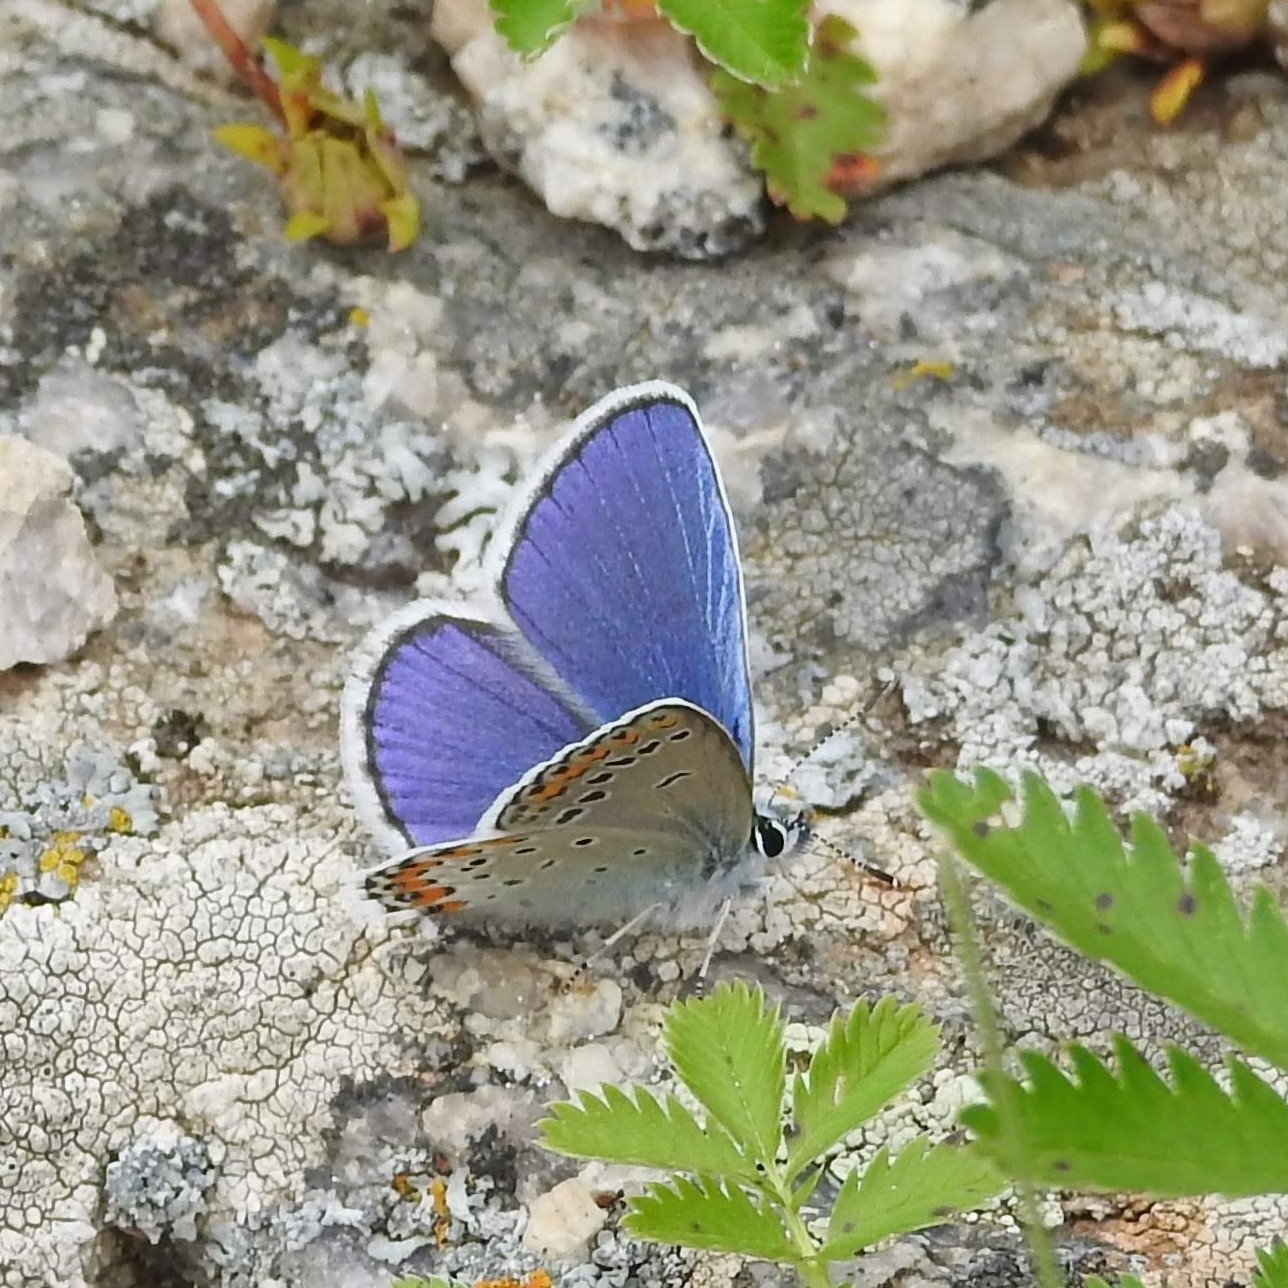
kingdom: Animalia
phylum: Arthropoda
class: Insecta
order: Lepidoptera
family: Lycaenidae
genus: Plebejus
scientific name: Plebejus argyrognomon
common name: Reverdin's blue
